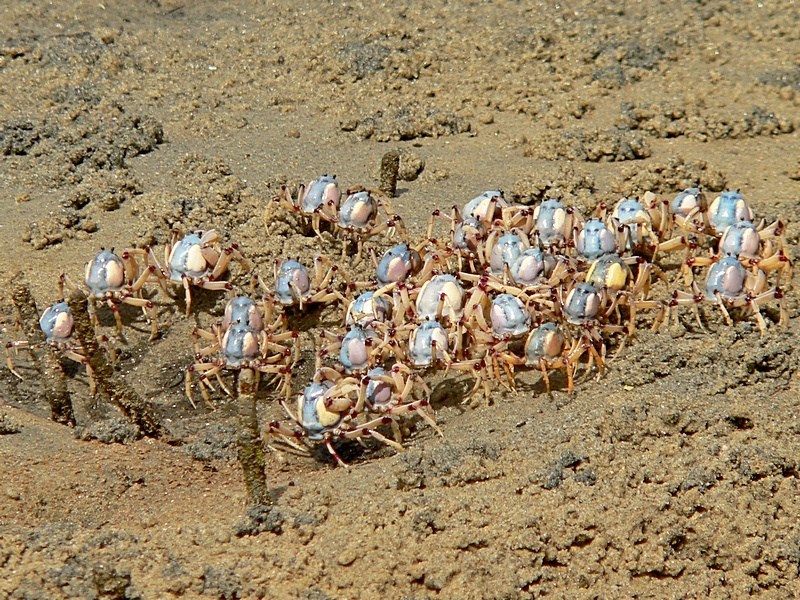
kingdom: Animalia
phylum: Arthropoda
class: Malacostraca
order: Decapoda
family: Mictyridae
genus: Mictyris
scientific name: Mictyris longicarpus
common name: Light-blue soldier crab
